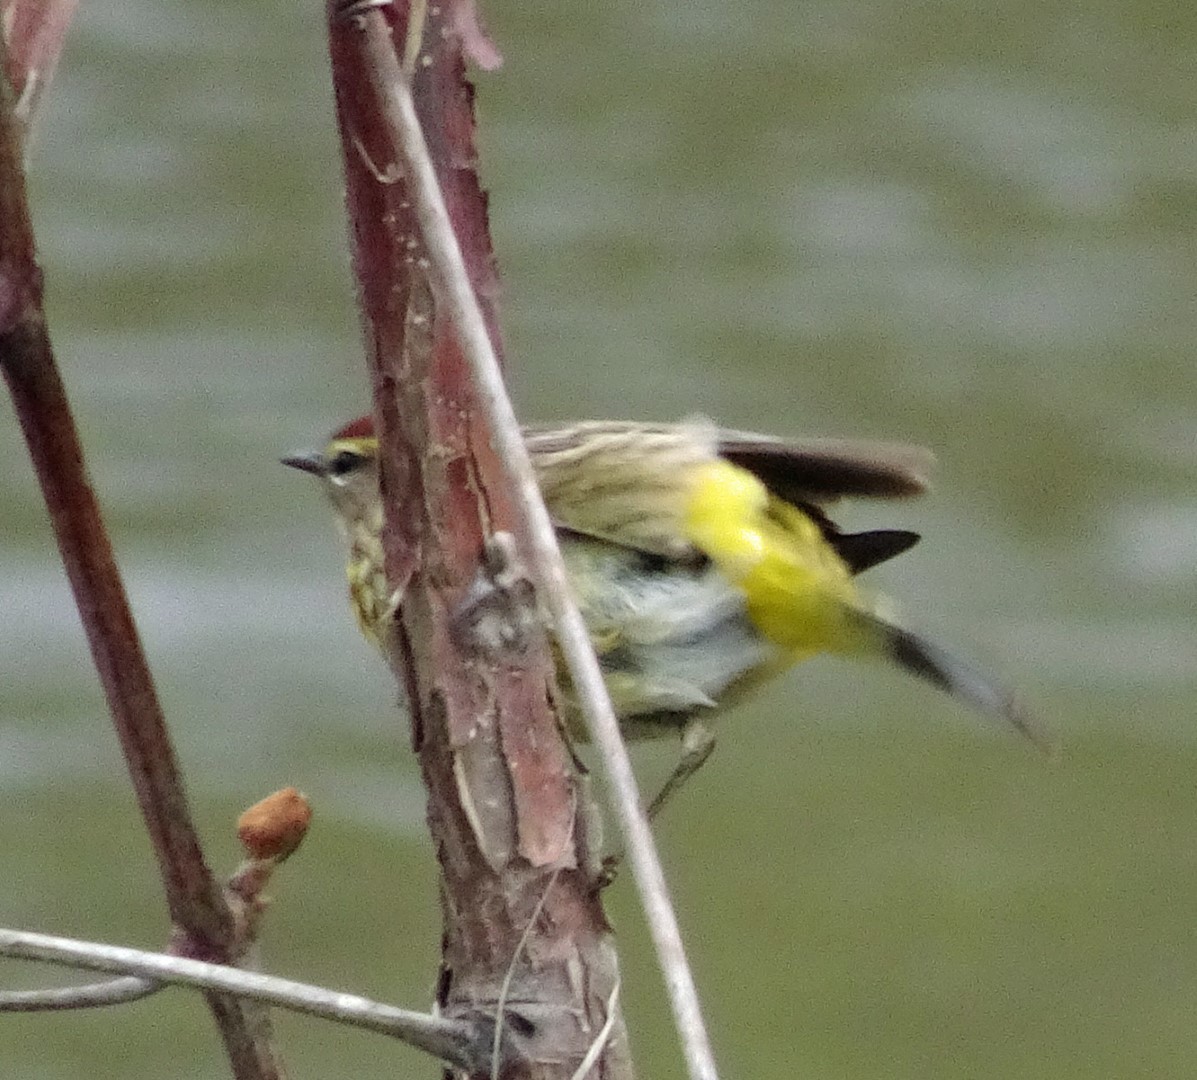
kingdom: Animalia
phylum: Chordata
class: Aves
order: Passeriformes
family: Parulidae
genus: Setophaga
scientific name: Setophaga palmarum
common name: Palm warbler
